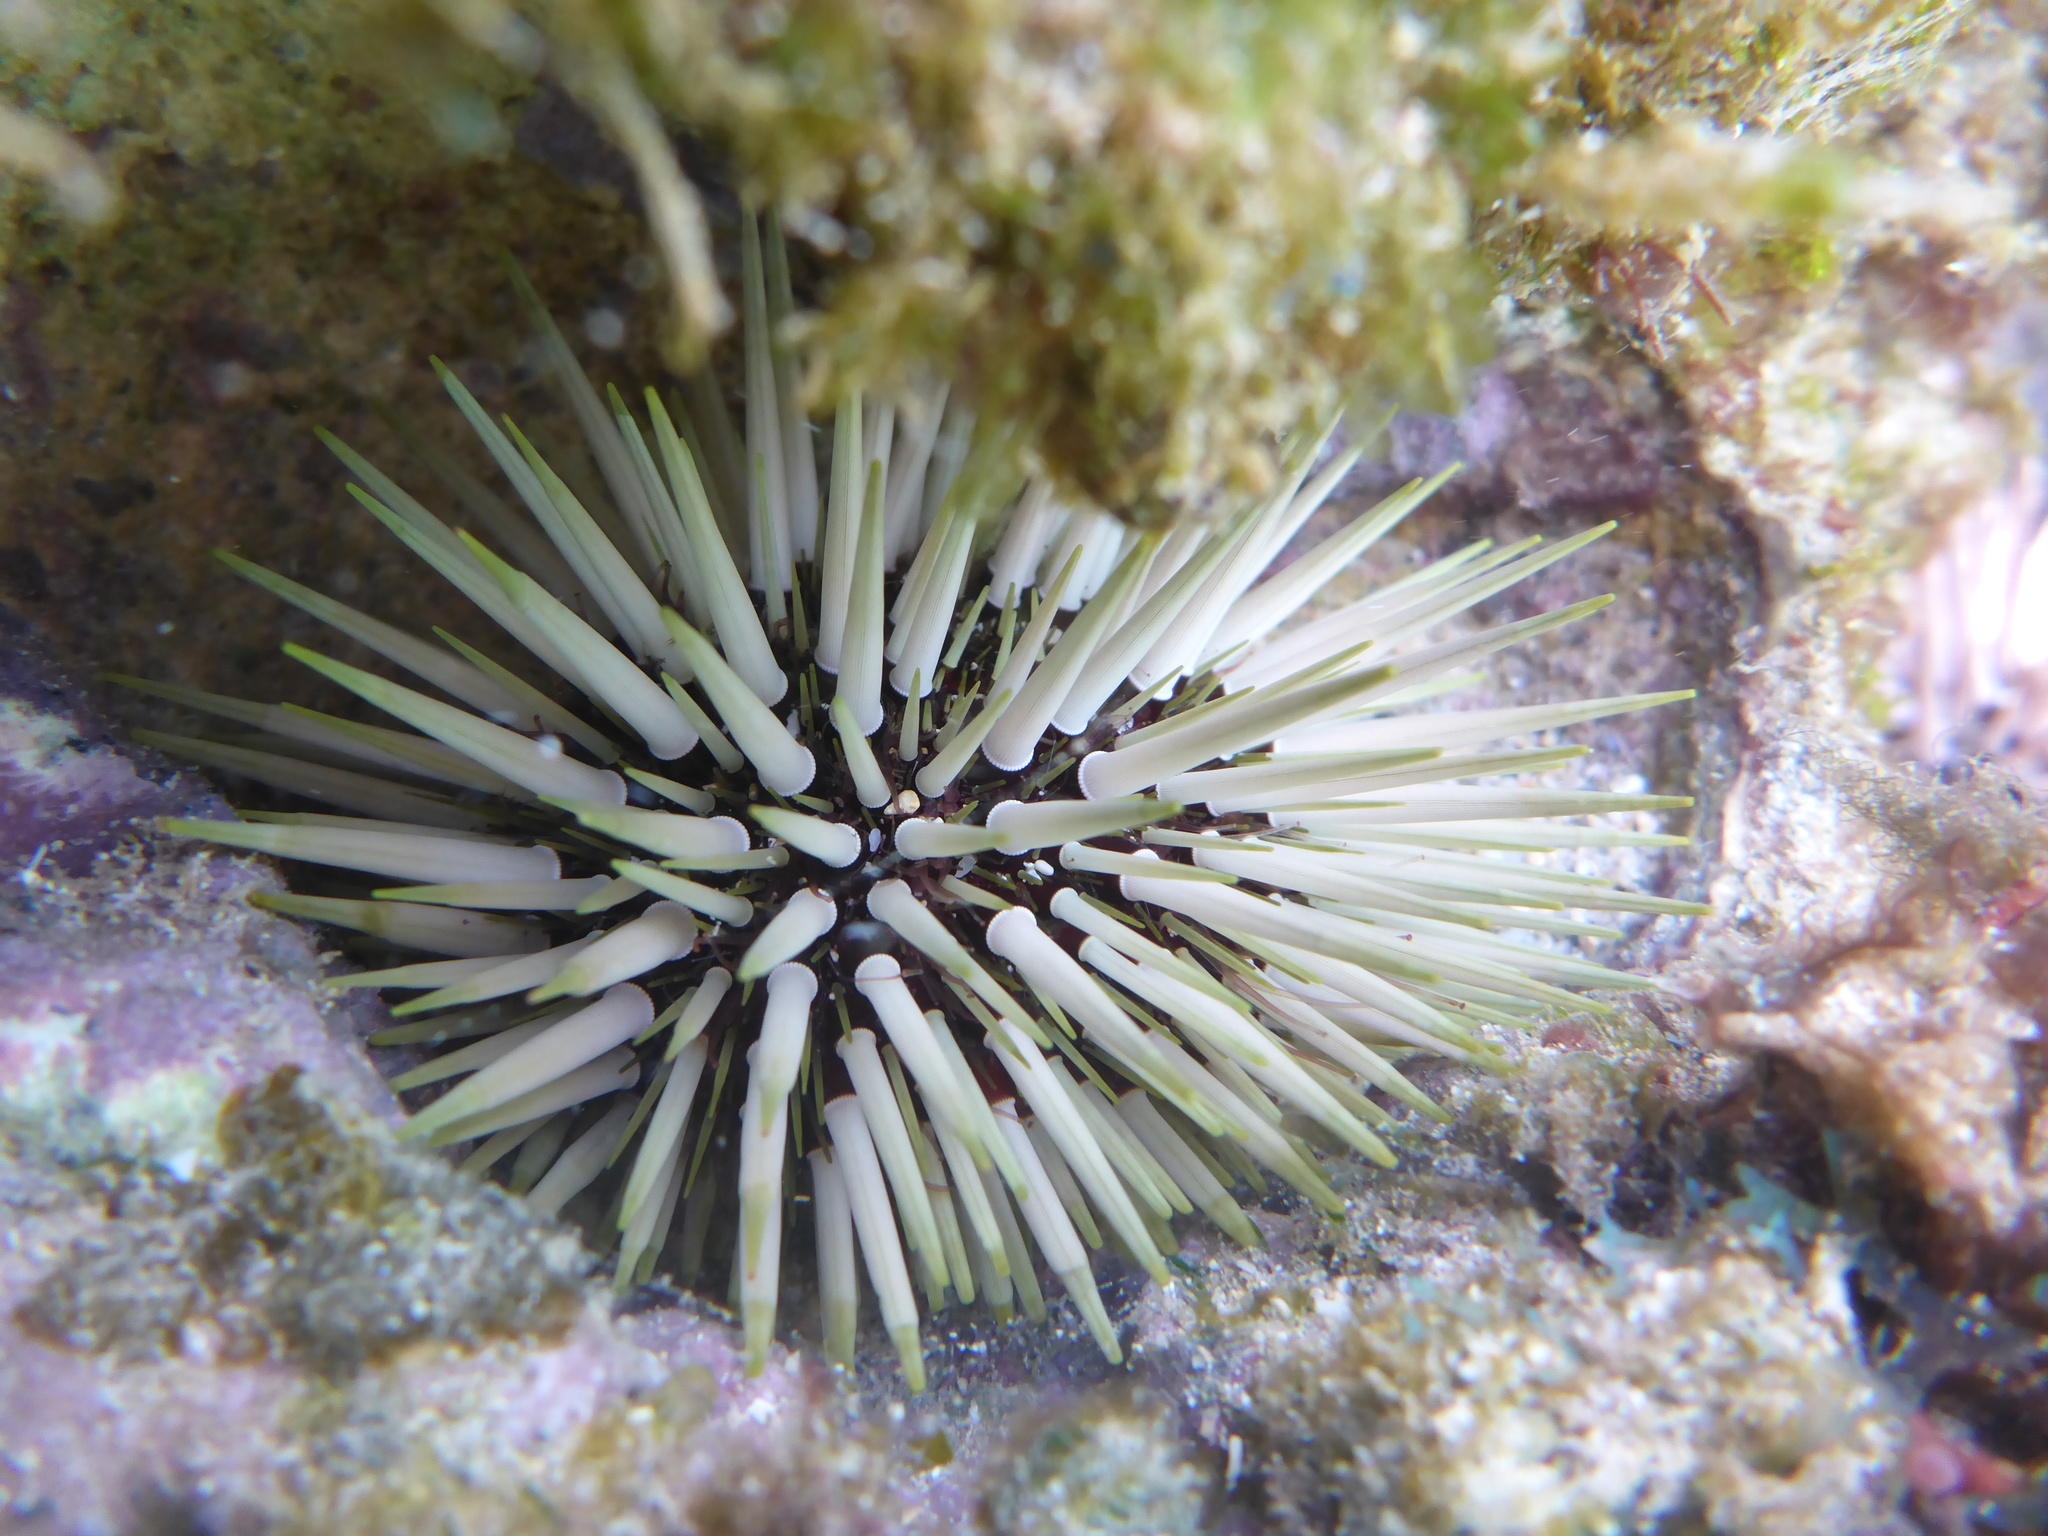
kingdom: Animalia
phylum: Echinodermata
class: Echinoidea
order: Camarodonta
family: Echinometridae
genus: Echinometra
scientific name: Echinometra mathaei
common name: Rock-boring urchin
